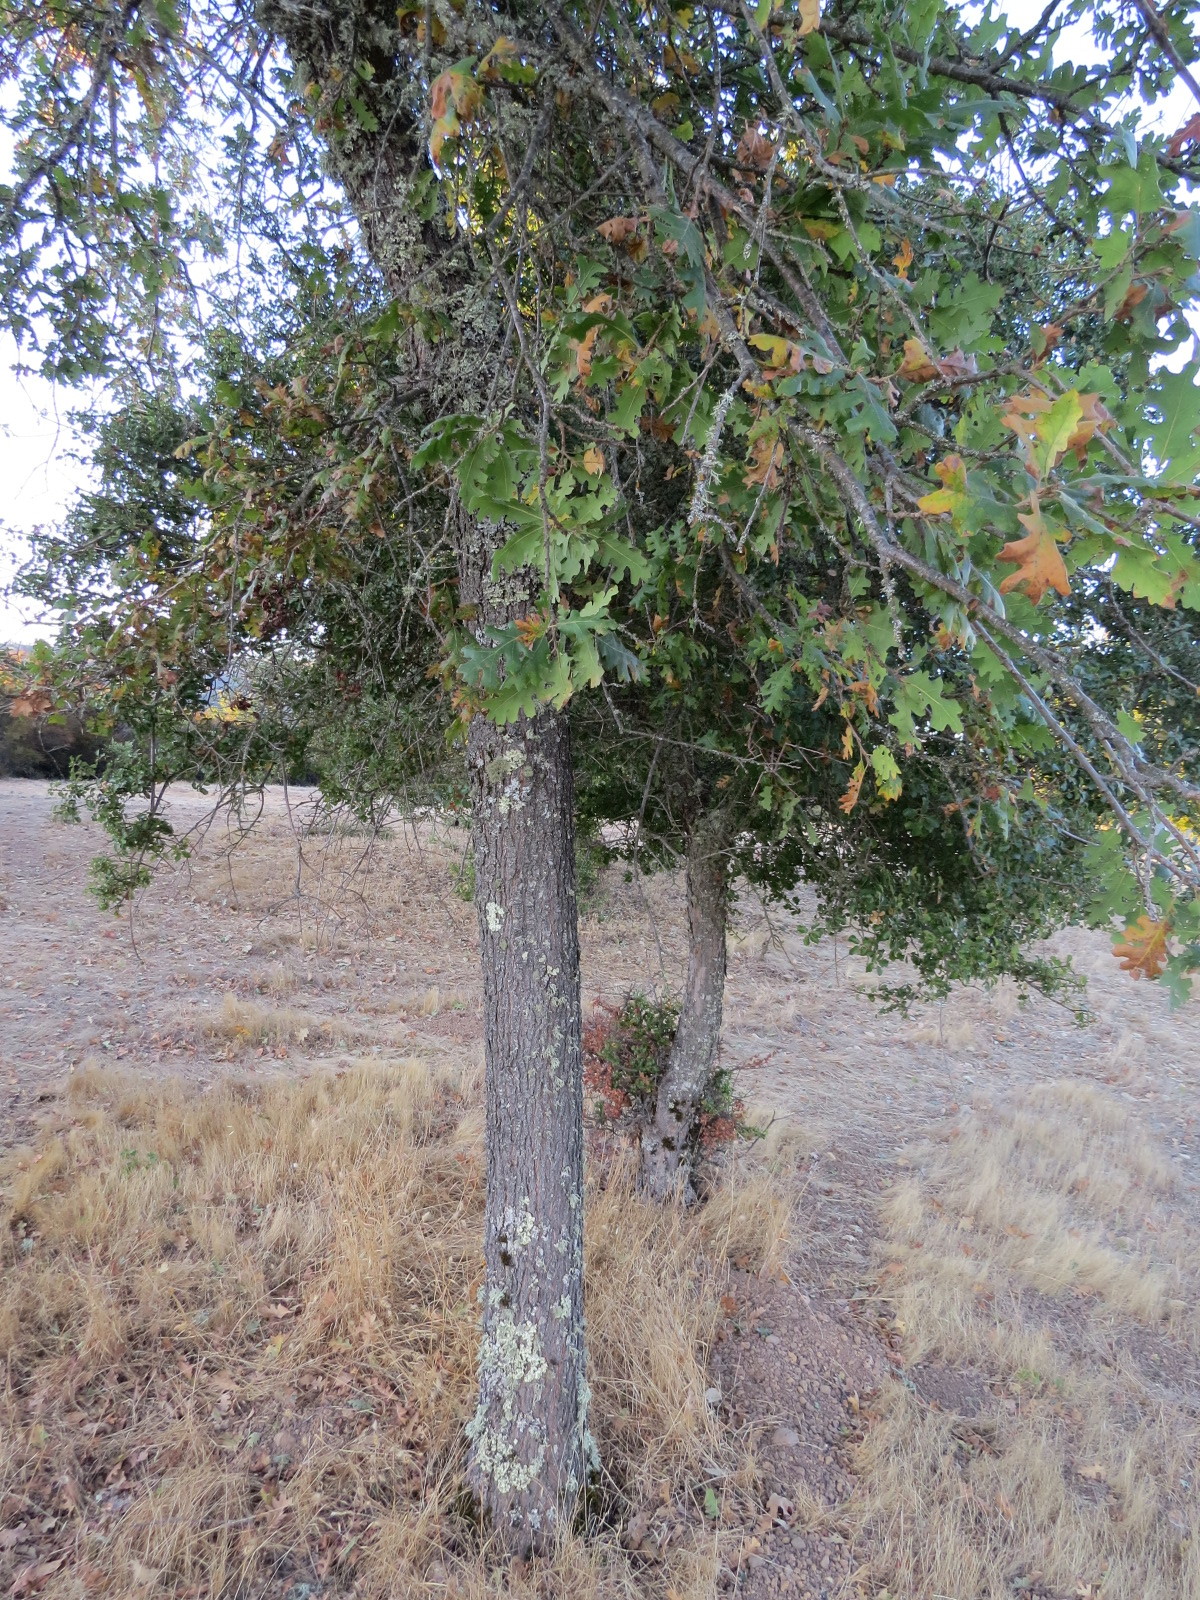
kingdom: Plantae
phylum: Tracheophyta
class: Magnoliopsida
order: Fagales
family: Fagaceae
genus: Quercus
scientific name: Quercus lobata
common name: Valley oak
